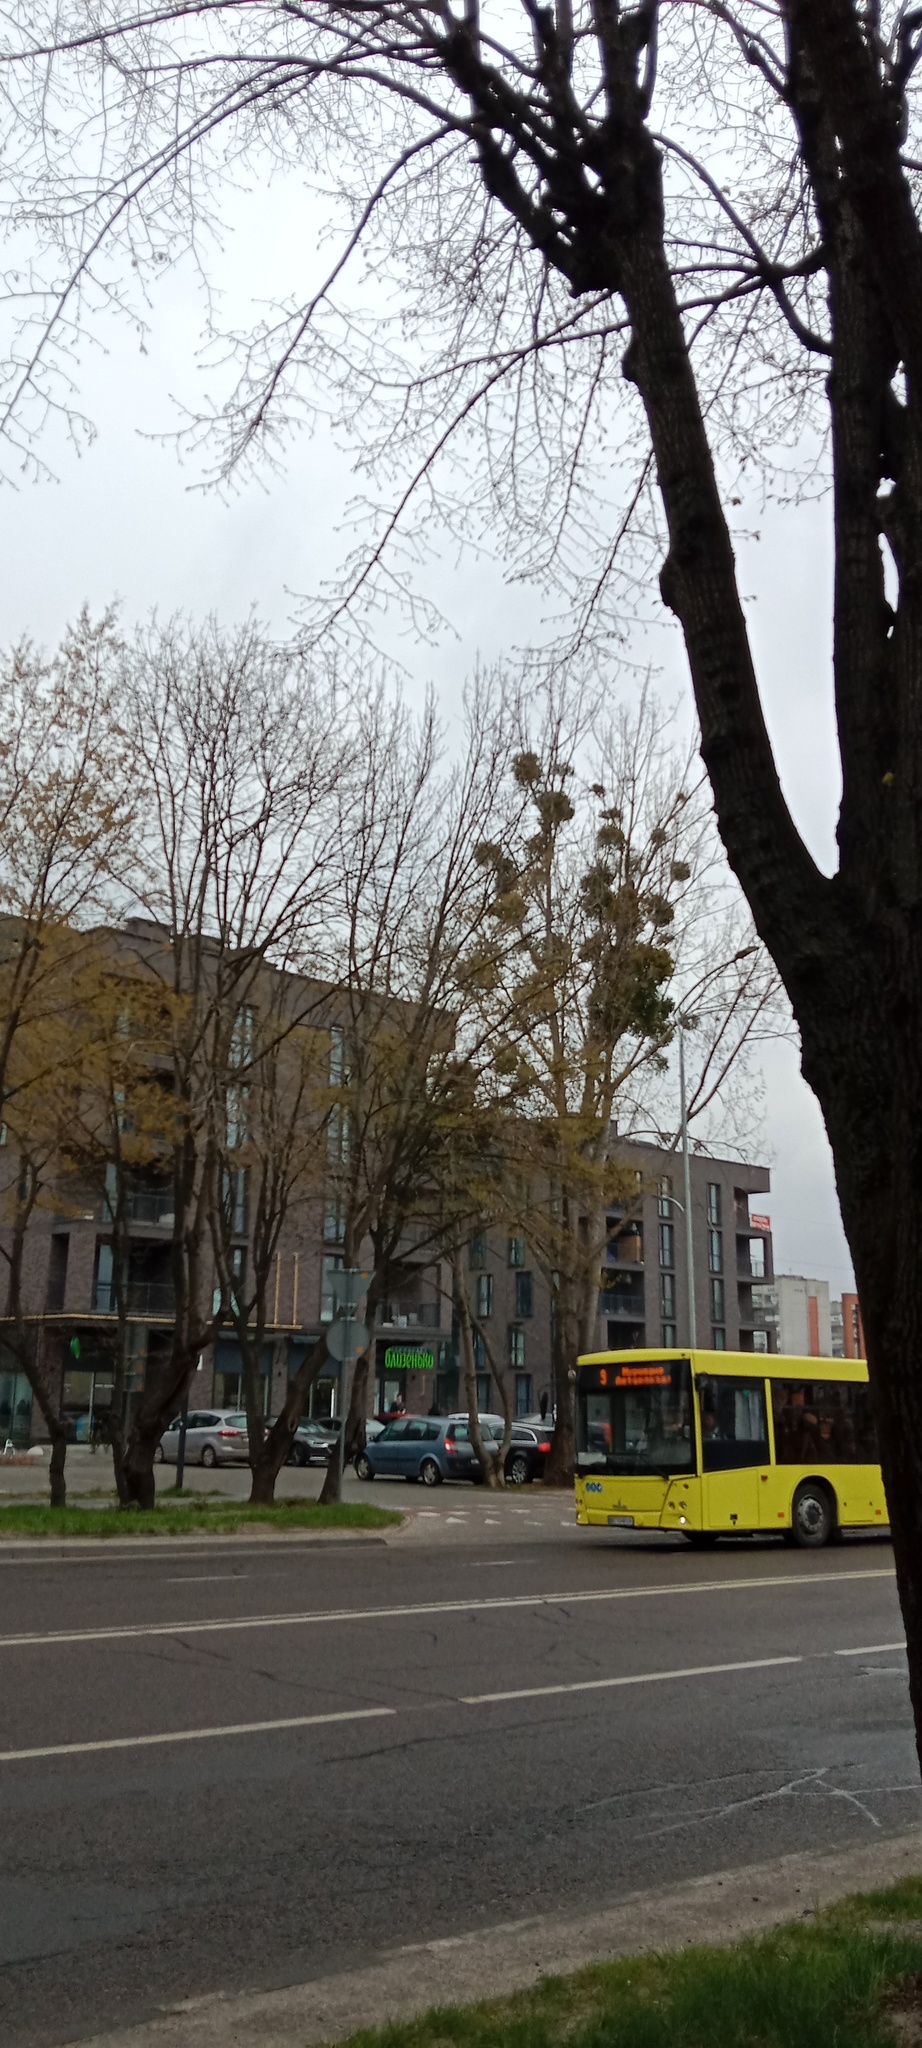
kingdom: Plantae
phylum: Tracheophyta
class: Magnoliopsida
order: Santalales
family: Viscaceae
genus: Viscum
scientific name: Viscum album
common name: Mistletoe
